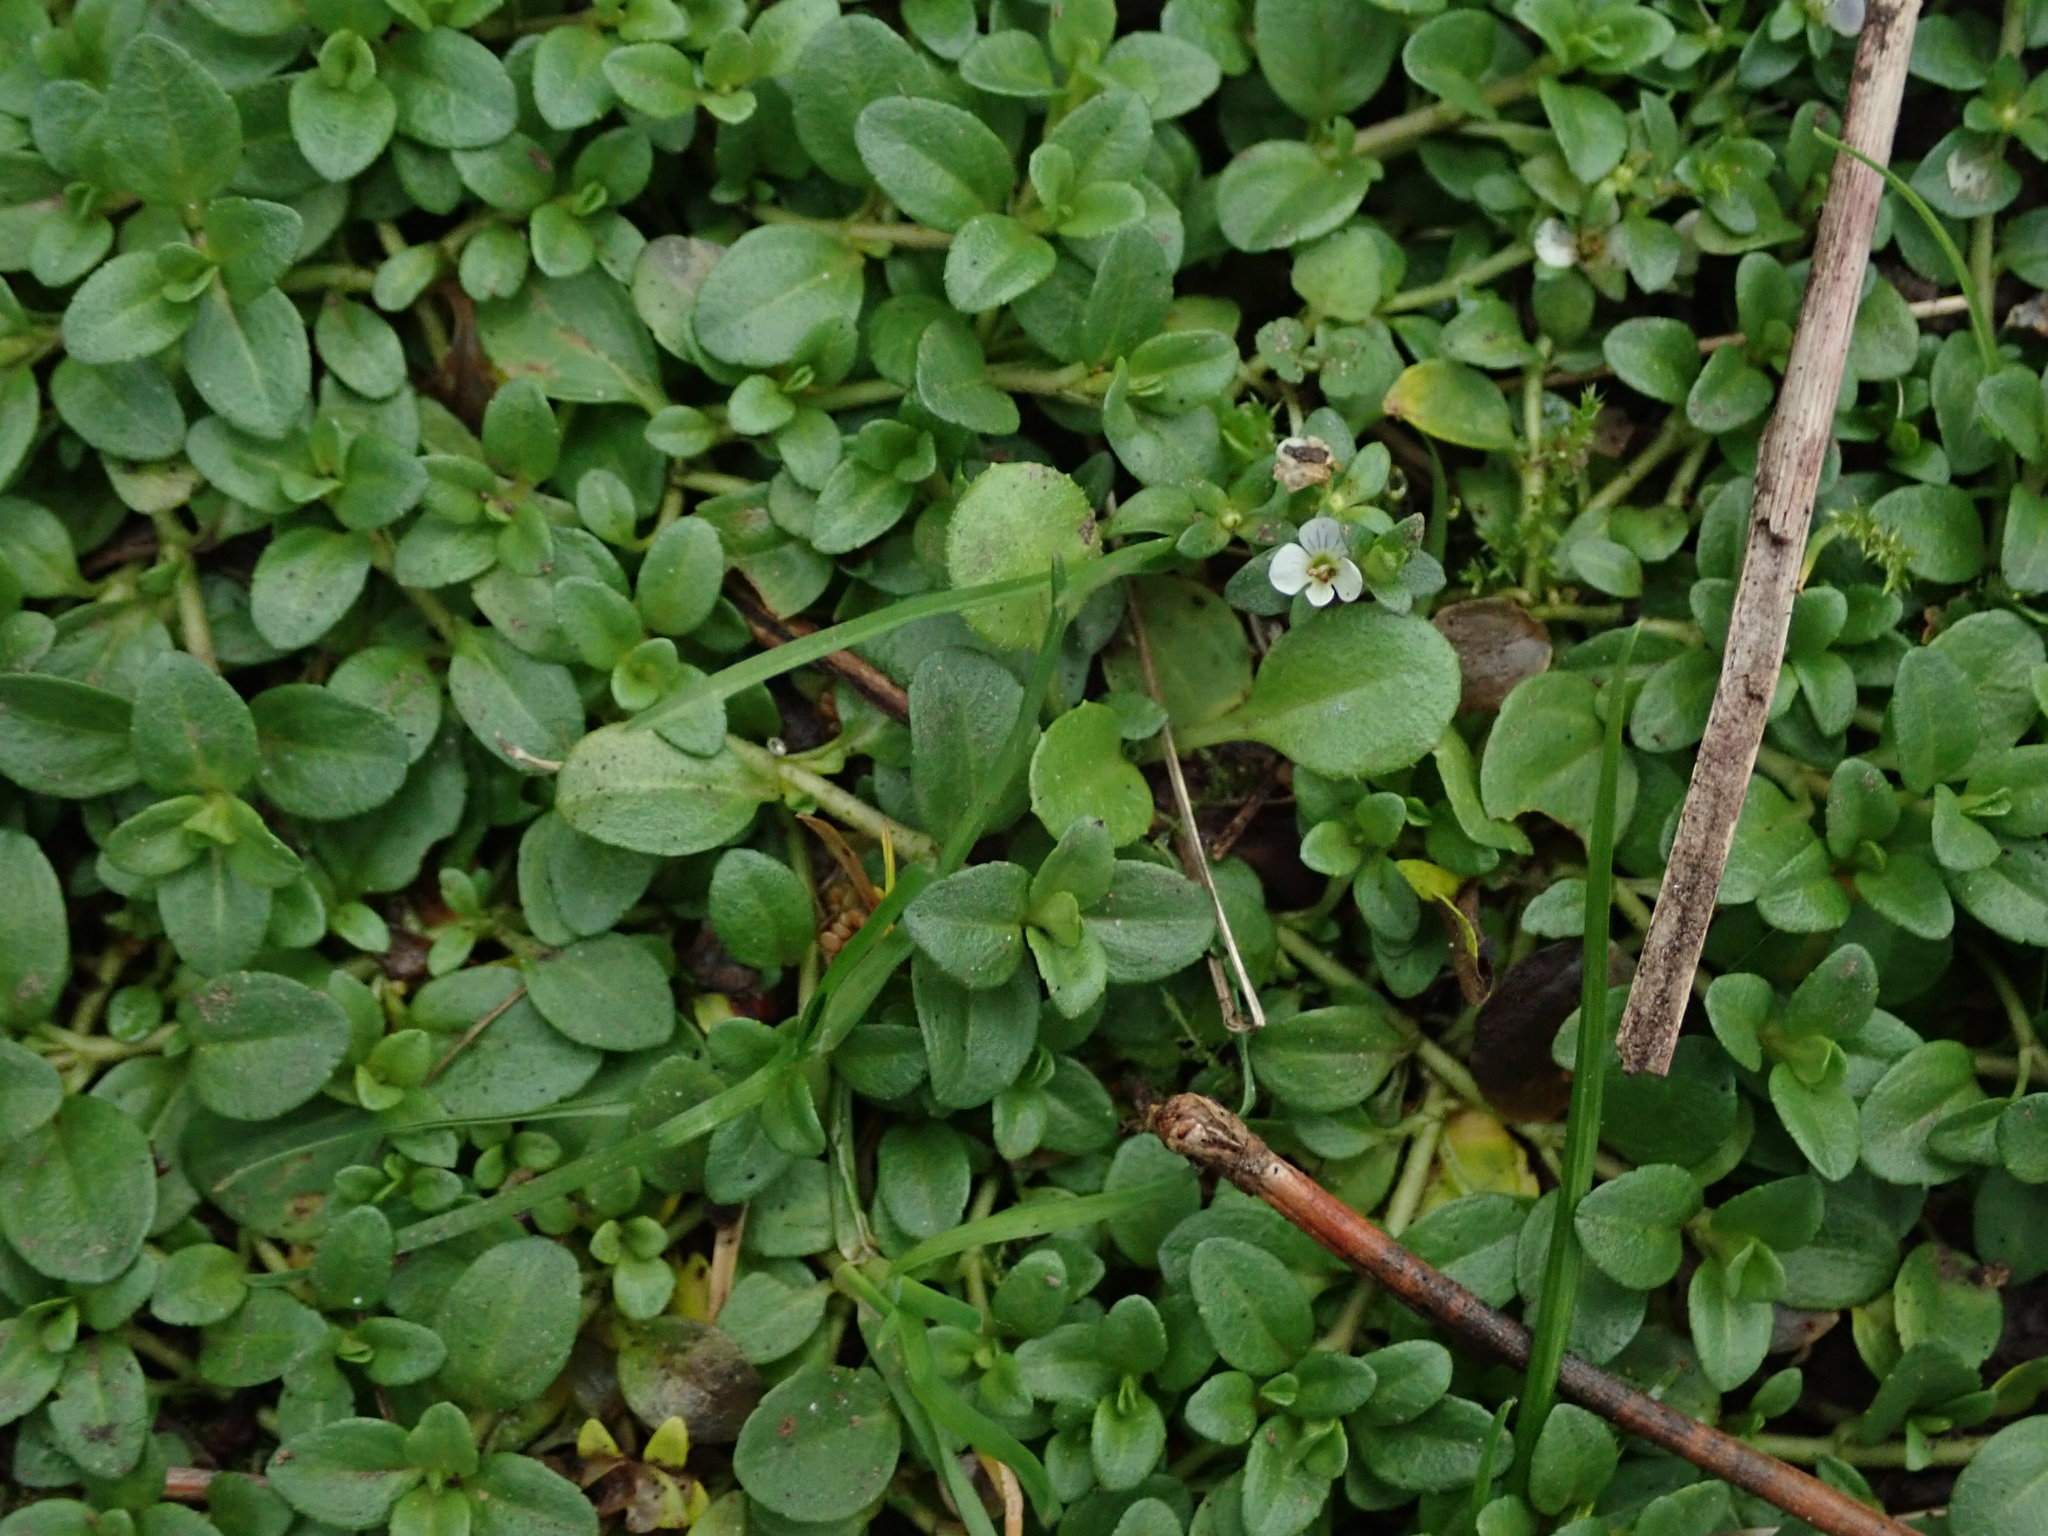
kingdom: Plantae
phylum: Tracheophyta
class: Magnoliopsida
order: Lamiales
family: Plantaginaceae
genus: Veronica
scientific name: Veronica serpyllifolia
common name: Thyme-leaved speedwell
